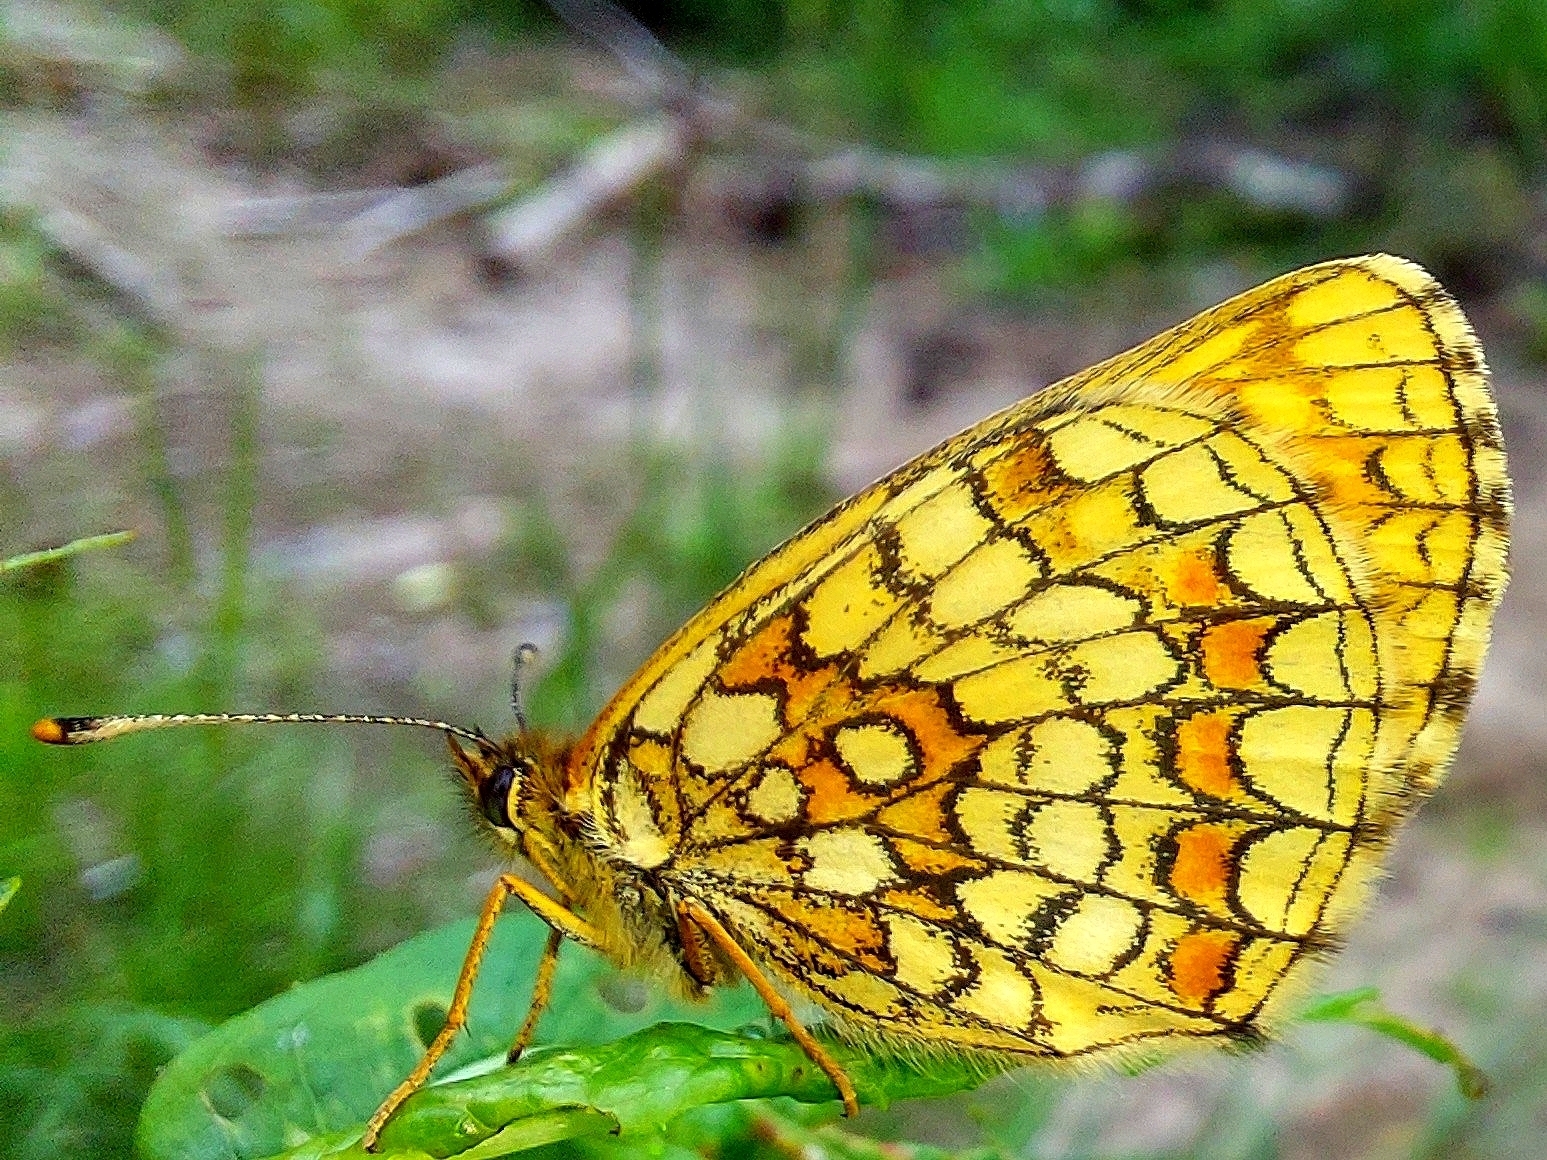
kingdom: Animalia
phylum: Arthropoda
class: Insecta
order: Lepidoptera
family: Nymphalidae
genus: Melitaea
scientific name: Melitaea athalia
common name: Heath fritillary
